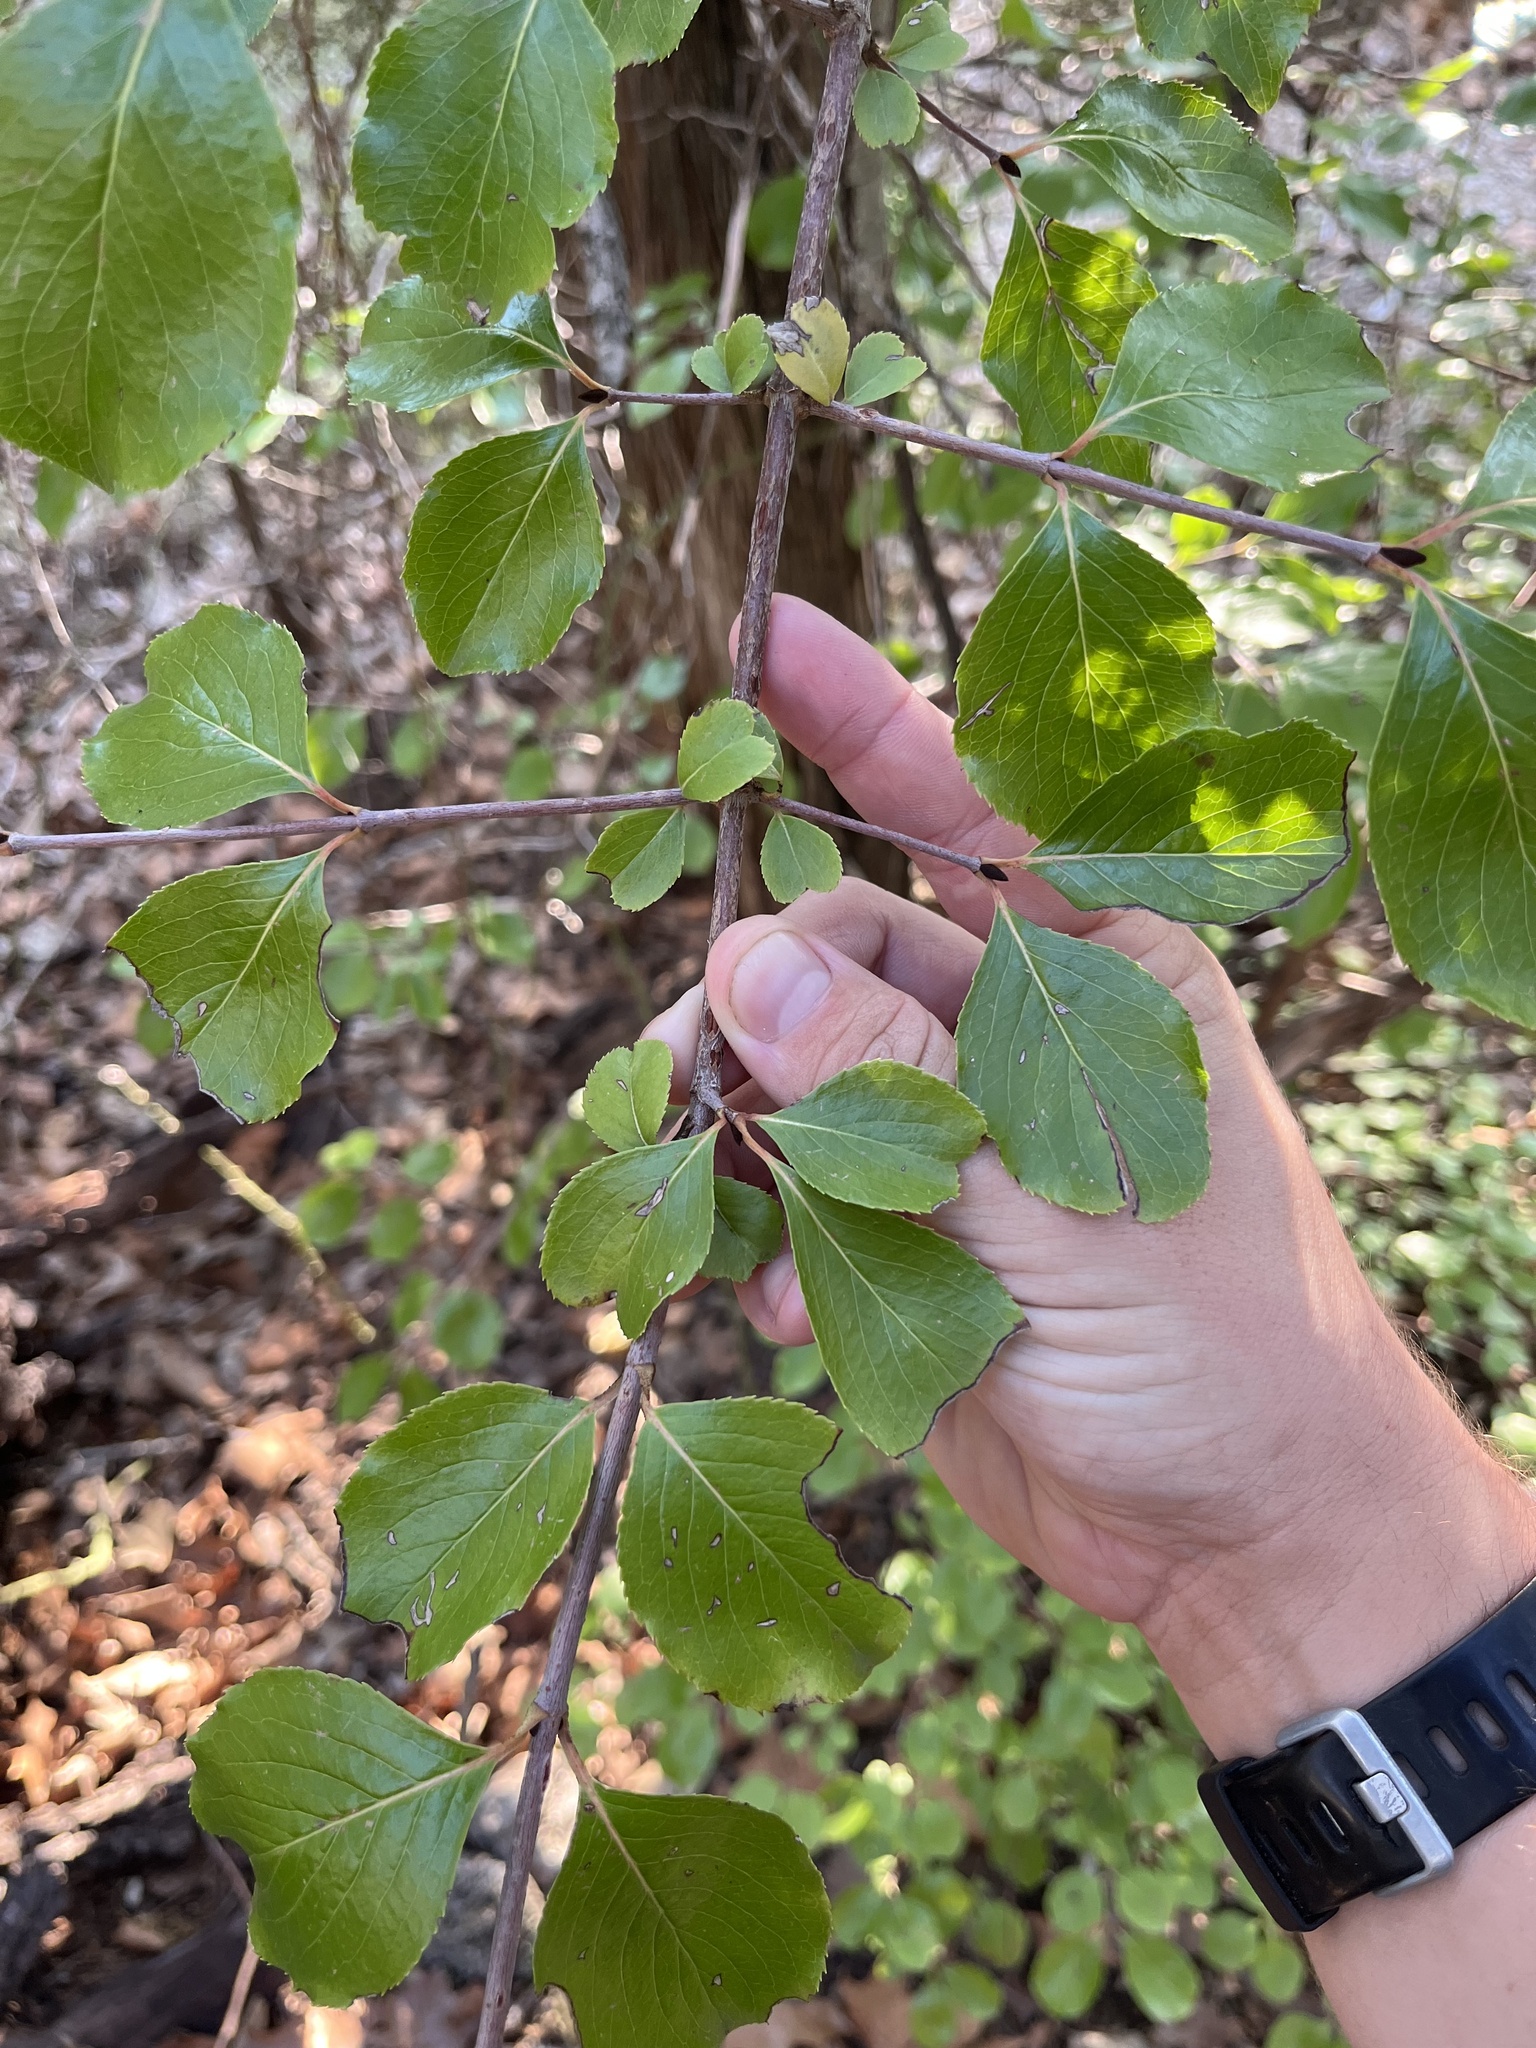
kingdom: Plantae
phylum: Tracheophyta
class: Magnoliopsida
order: Dipsacales
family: Viburnaceae
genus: Viburnum
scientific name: Viburnum rufidulum
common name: Blue haw
